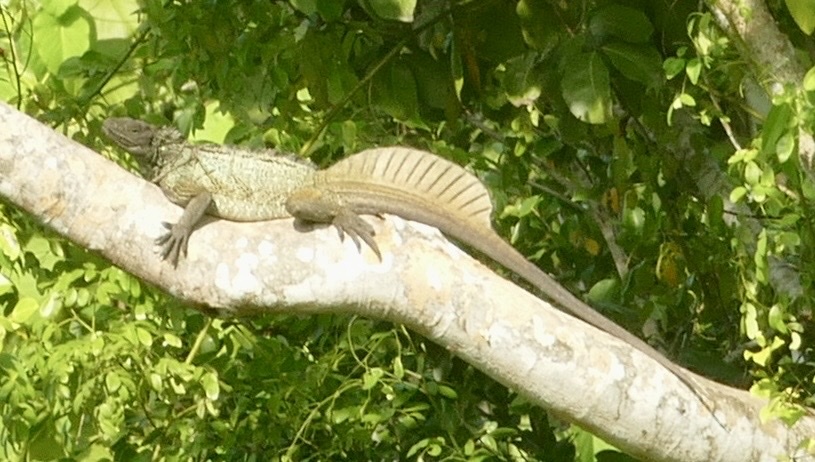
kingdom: Animalia
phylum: Chordata
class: Squamata
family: Agamidae
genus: Hydrosaurus
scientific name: Hydrosaurus amboinensis
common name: Sailfin lizard
